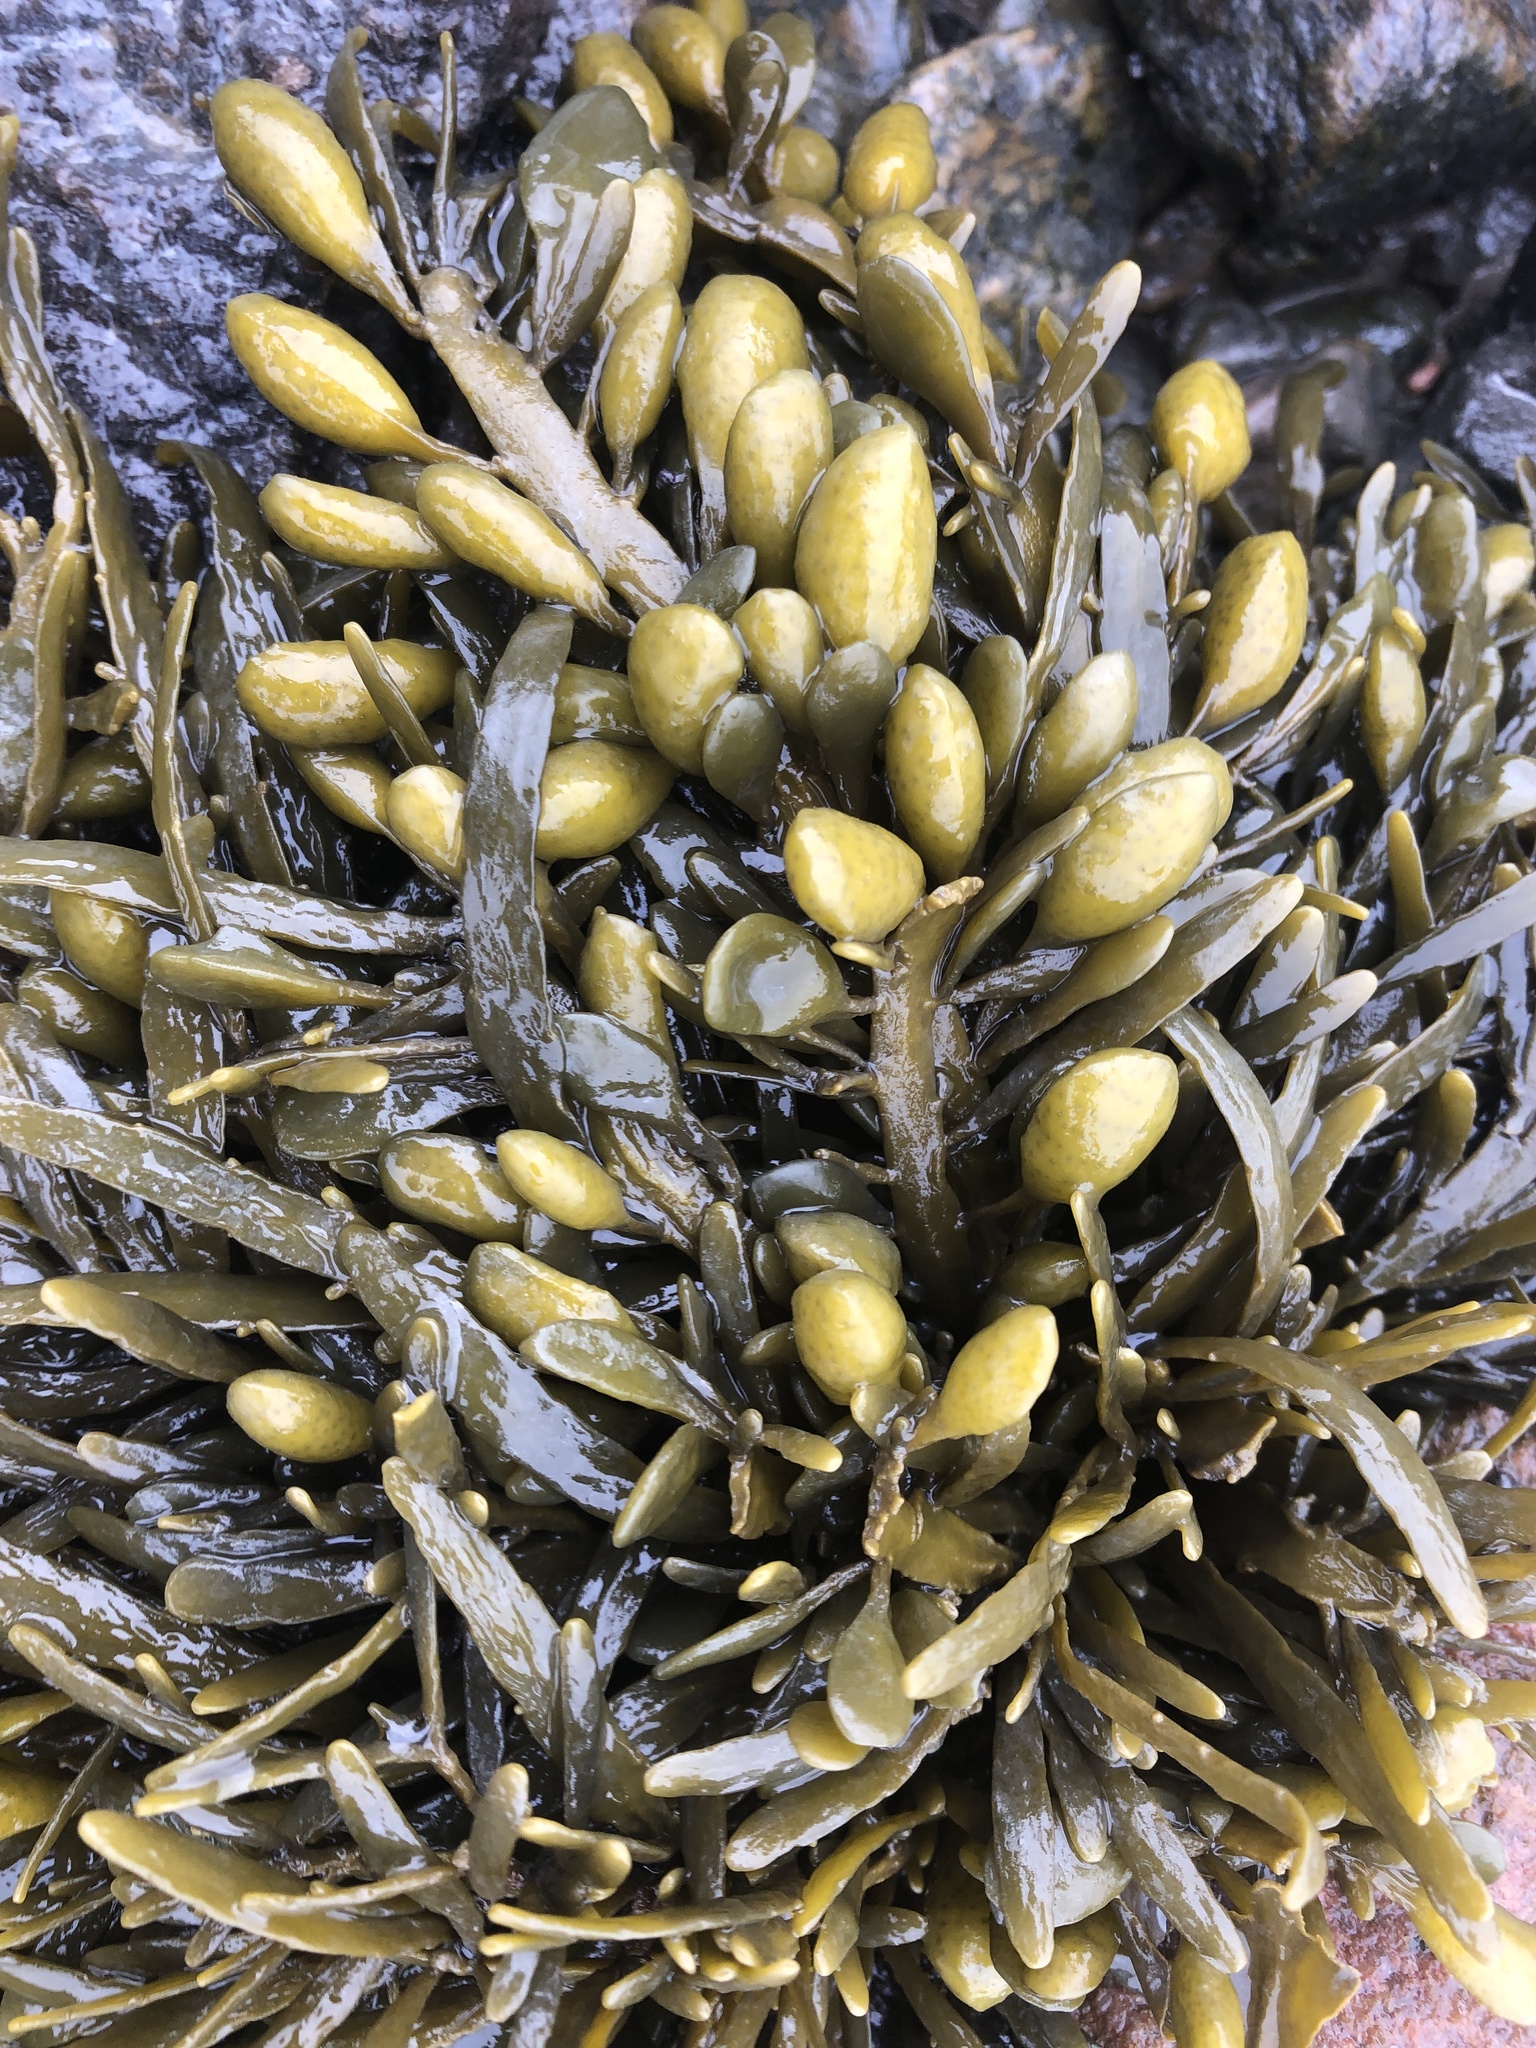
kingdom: Chromista
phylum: Ochrophyta
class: Phaeophyceae
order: Fucales
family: Fucaceae
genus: Ascophyllum
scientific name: Ascophyllum nodosum
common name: Knotted wrack
